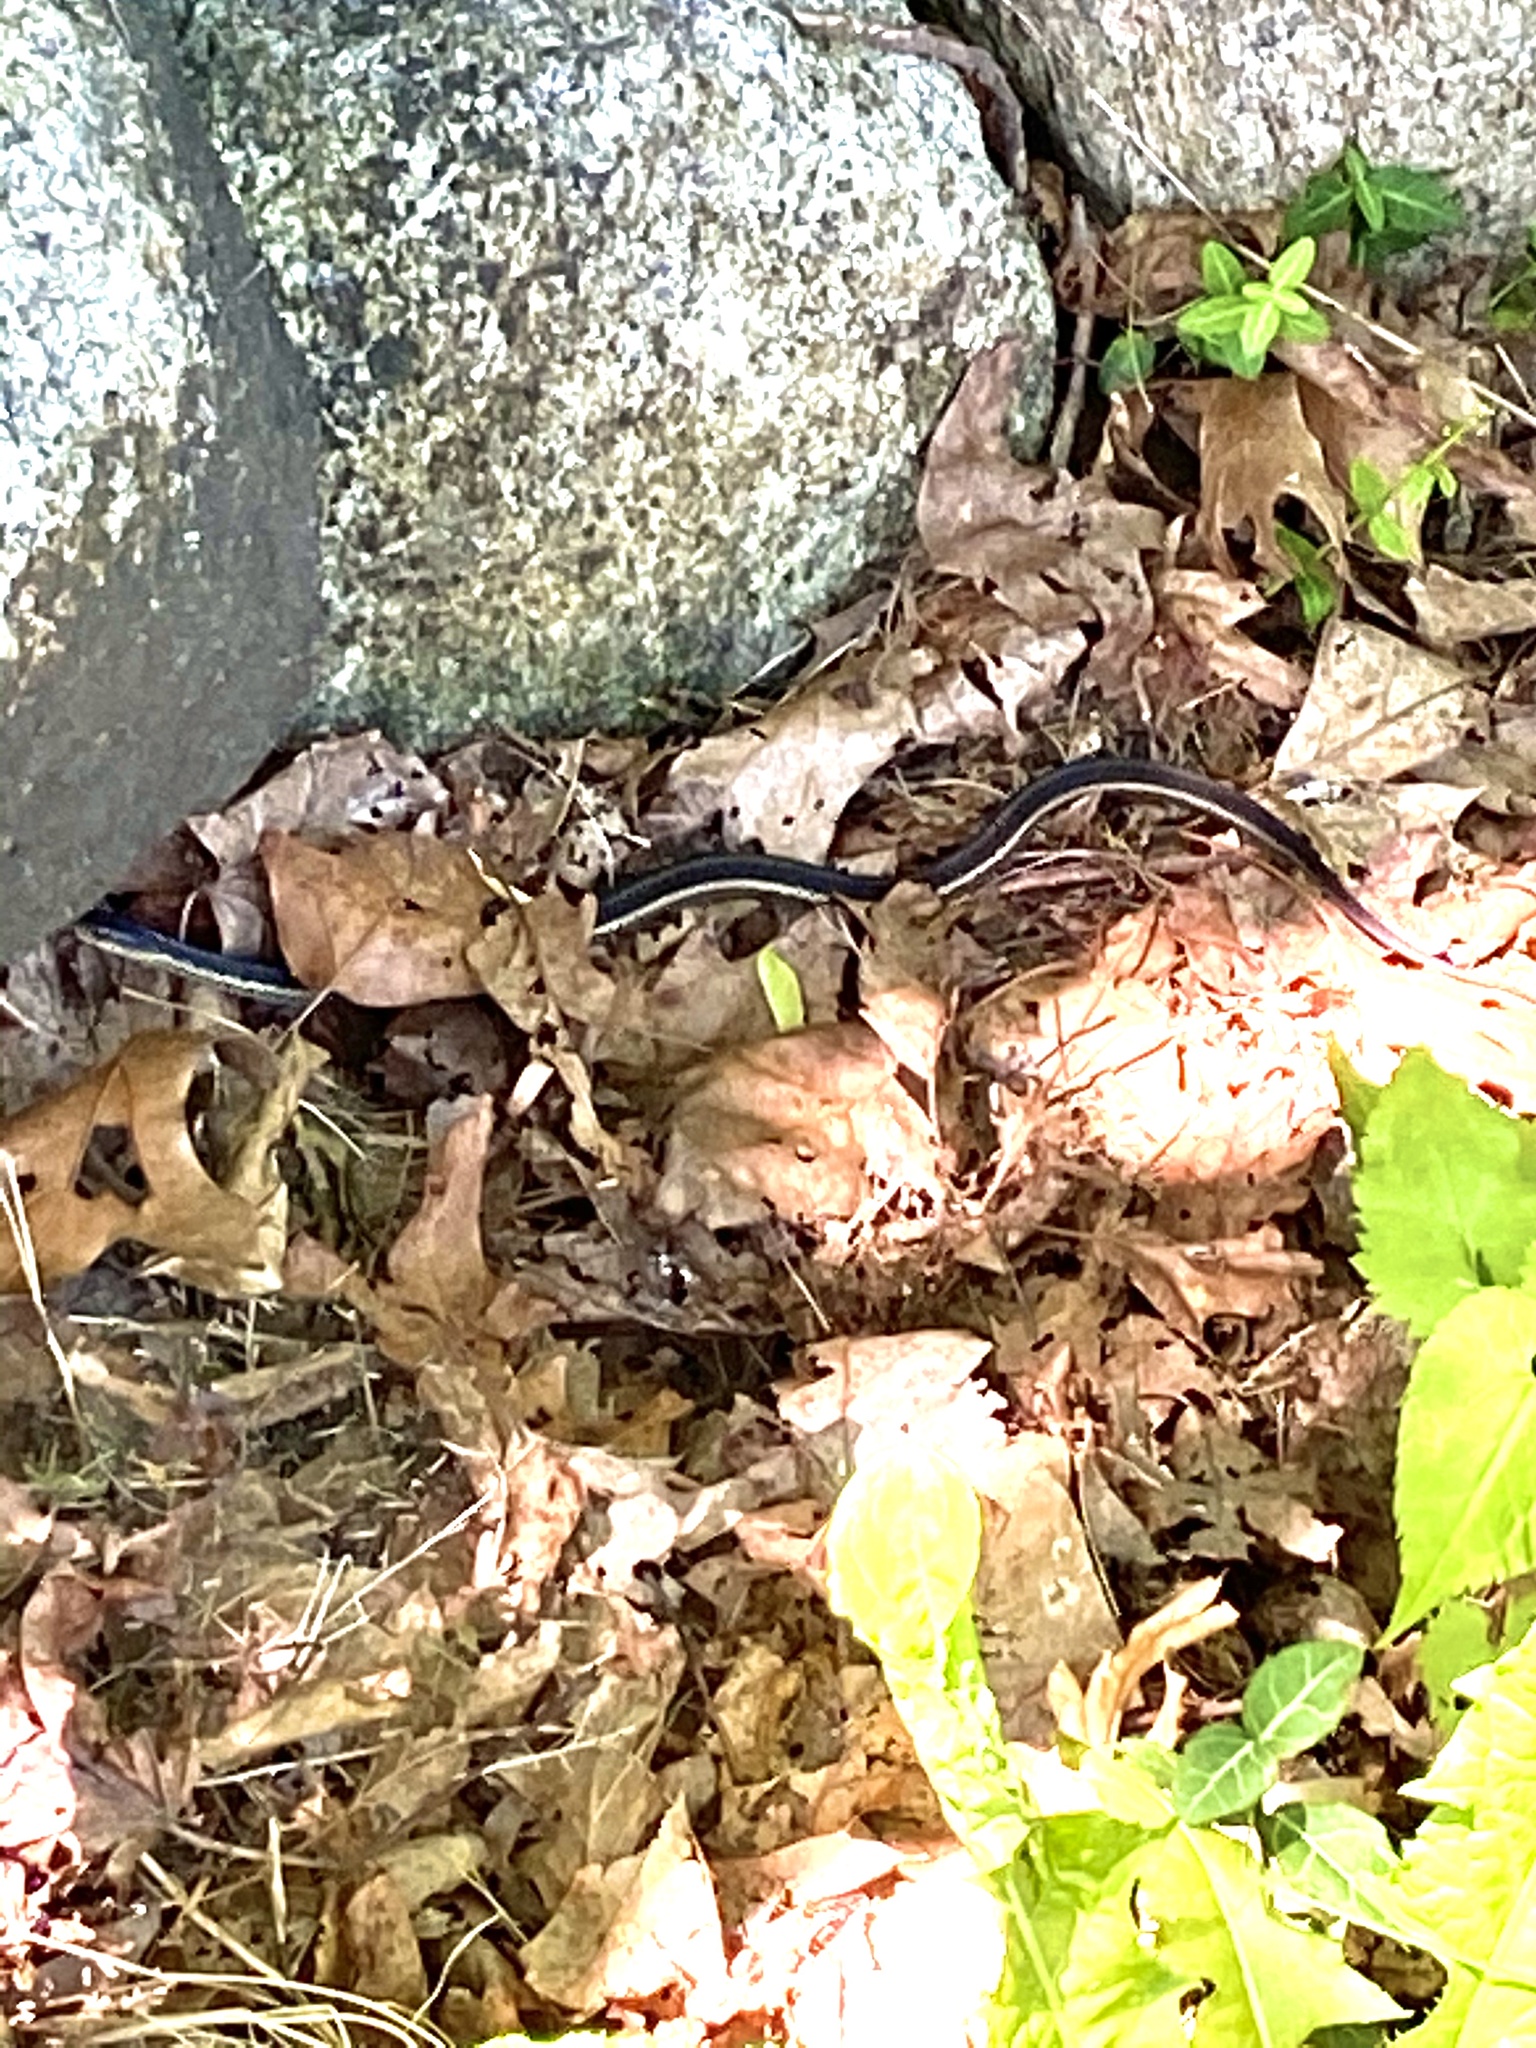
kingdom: Animalia
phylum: Chordata
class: Squamata
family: Colubridae
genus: Thamnophis
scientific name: Thamnophis sirtalis
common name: Common garter snake
